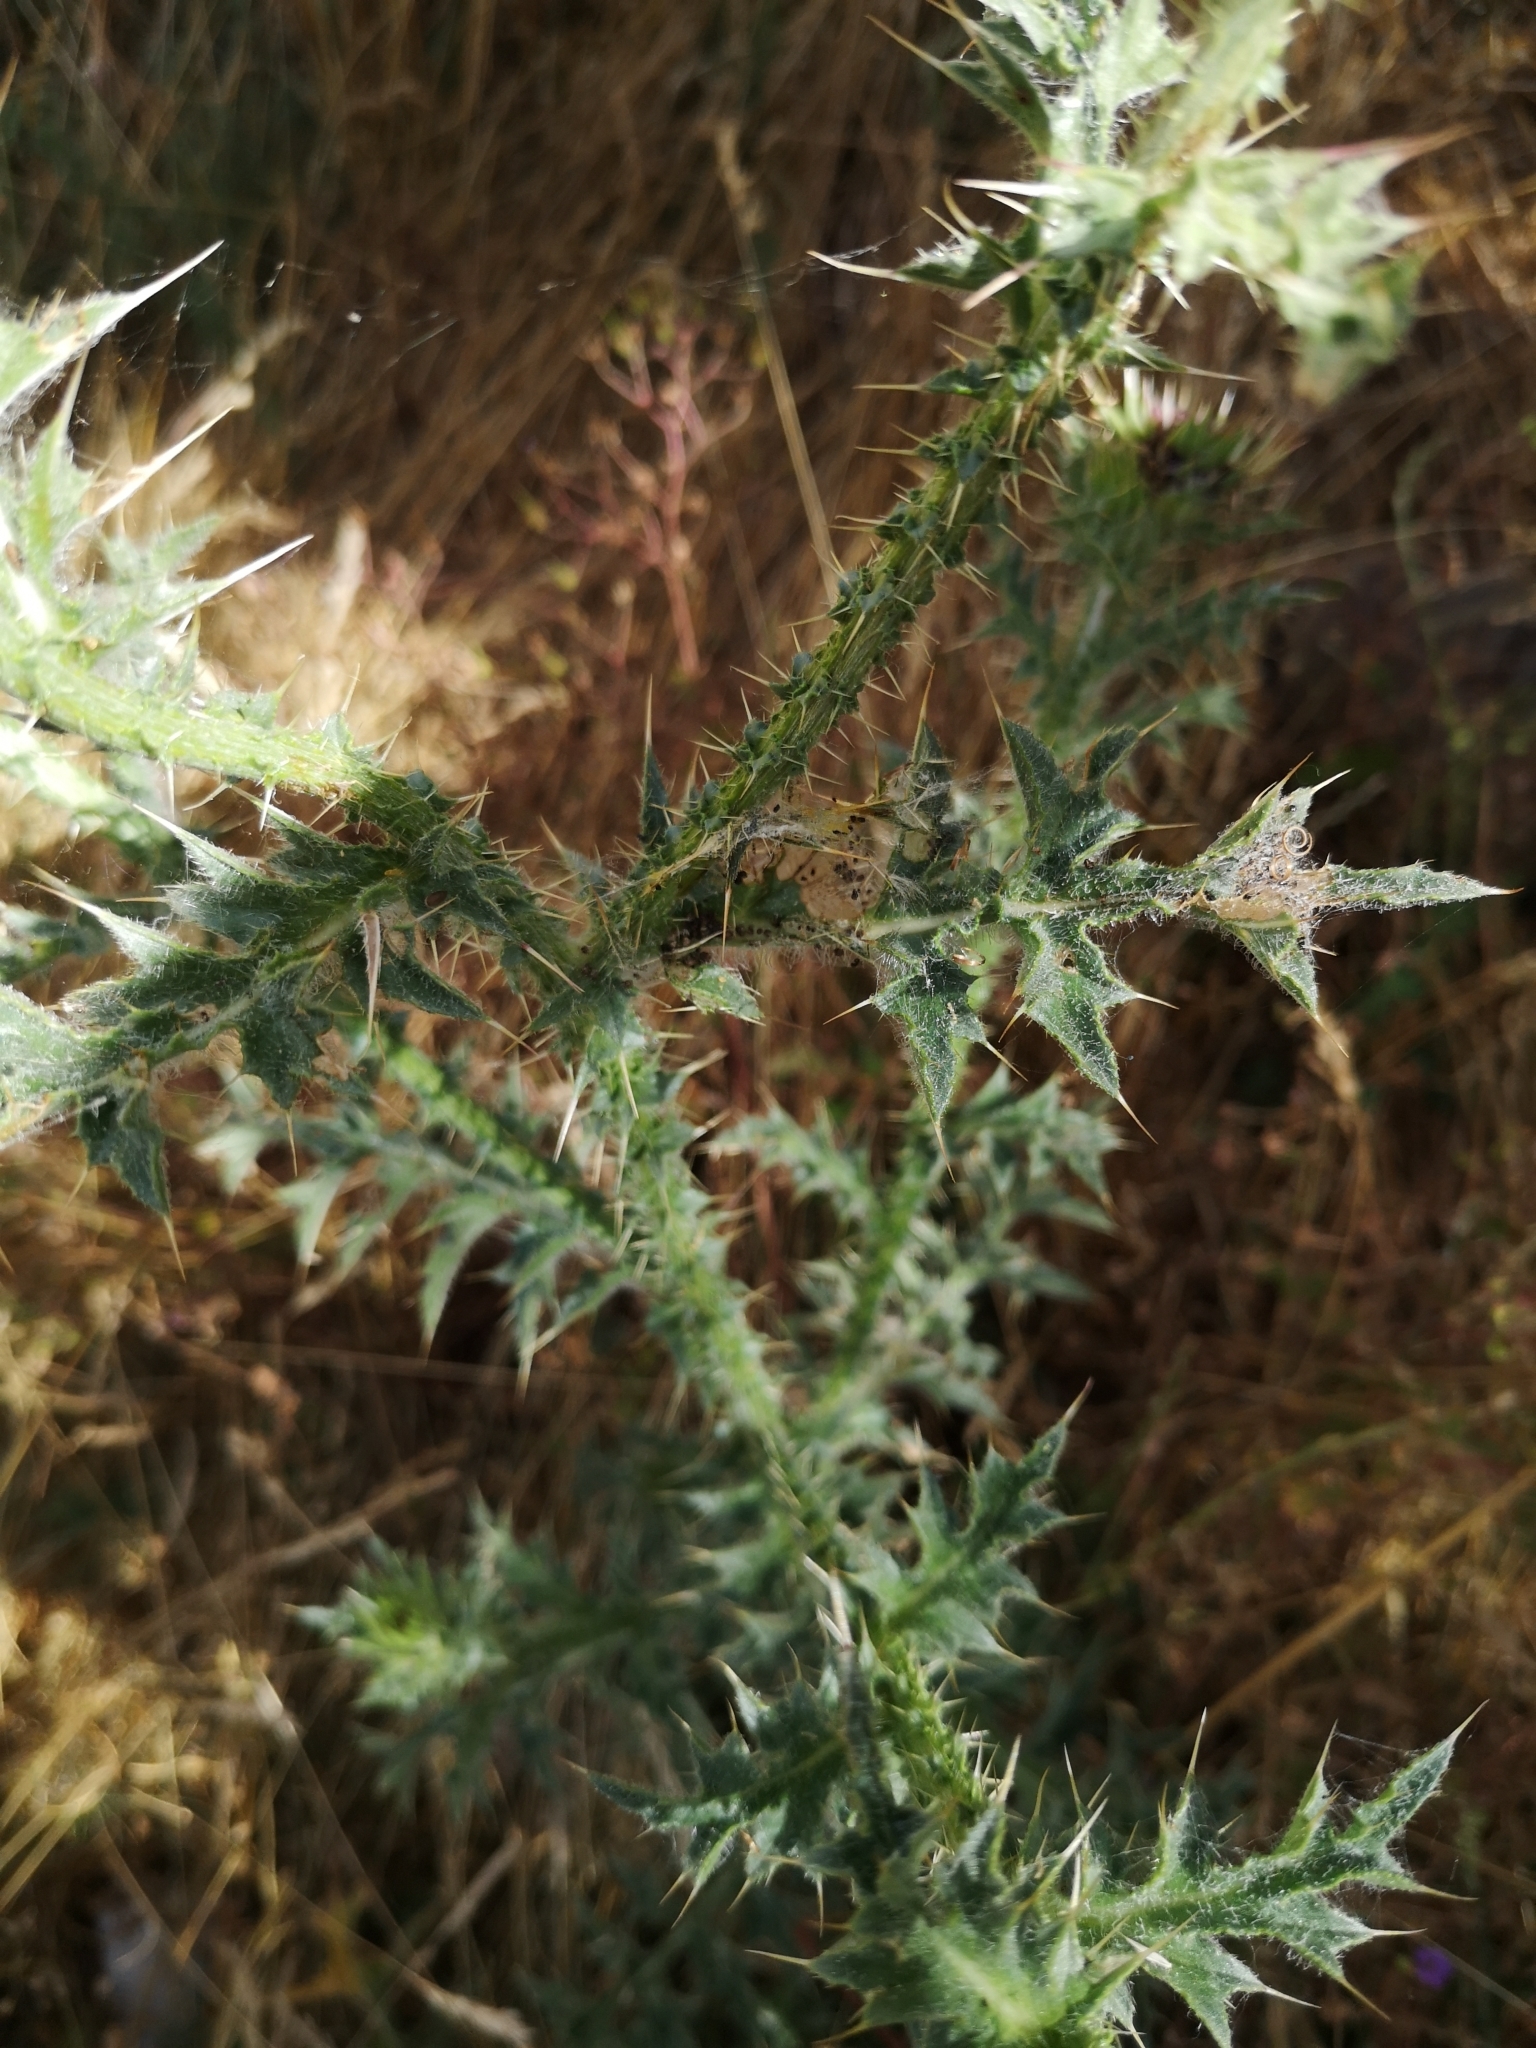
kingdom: Plantae
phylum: Tracheophyta
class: Magnoliopsida
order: Asterales
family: Asteraceae
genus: Carduus
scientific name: Carduus nutans
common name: Musk thistle
